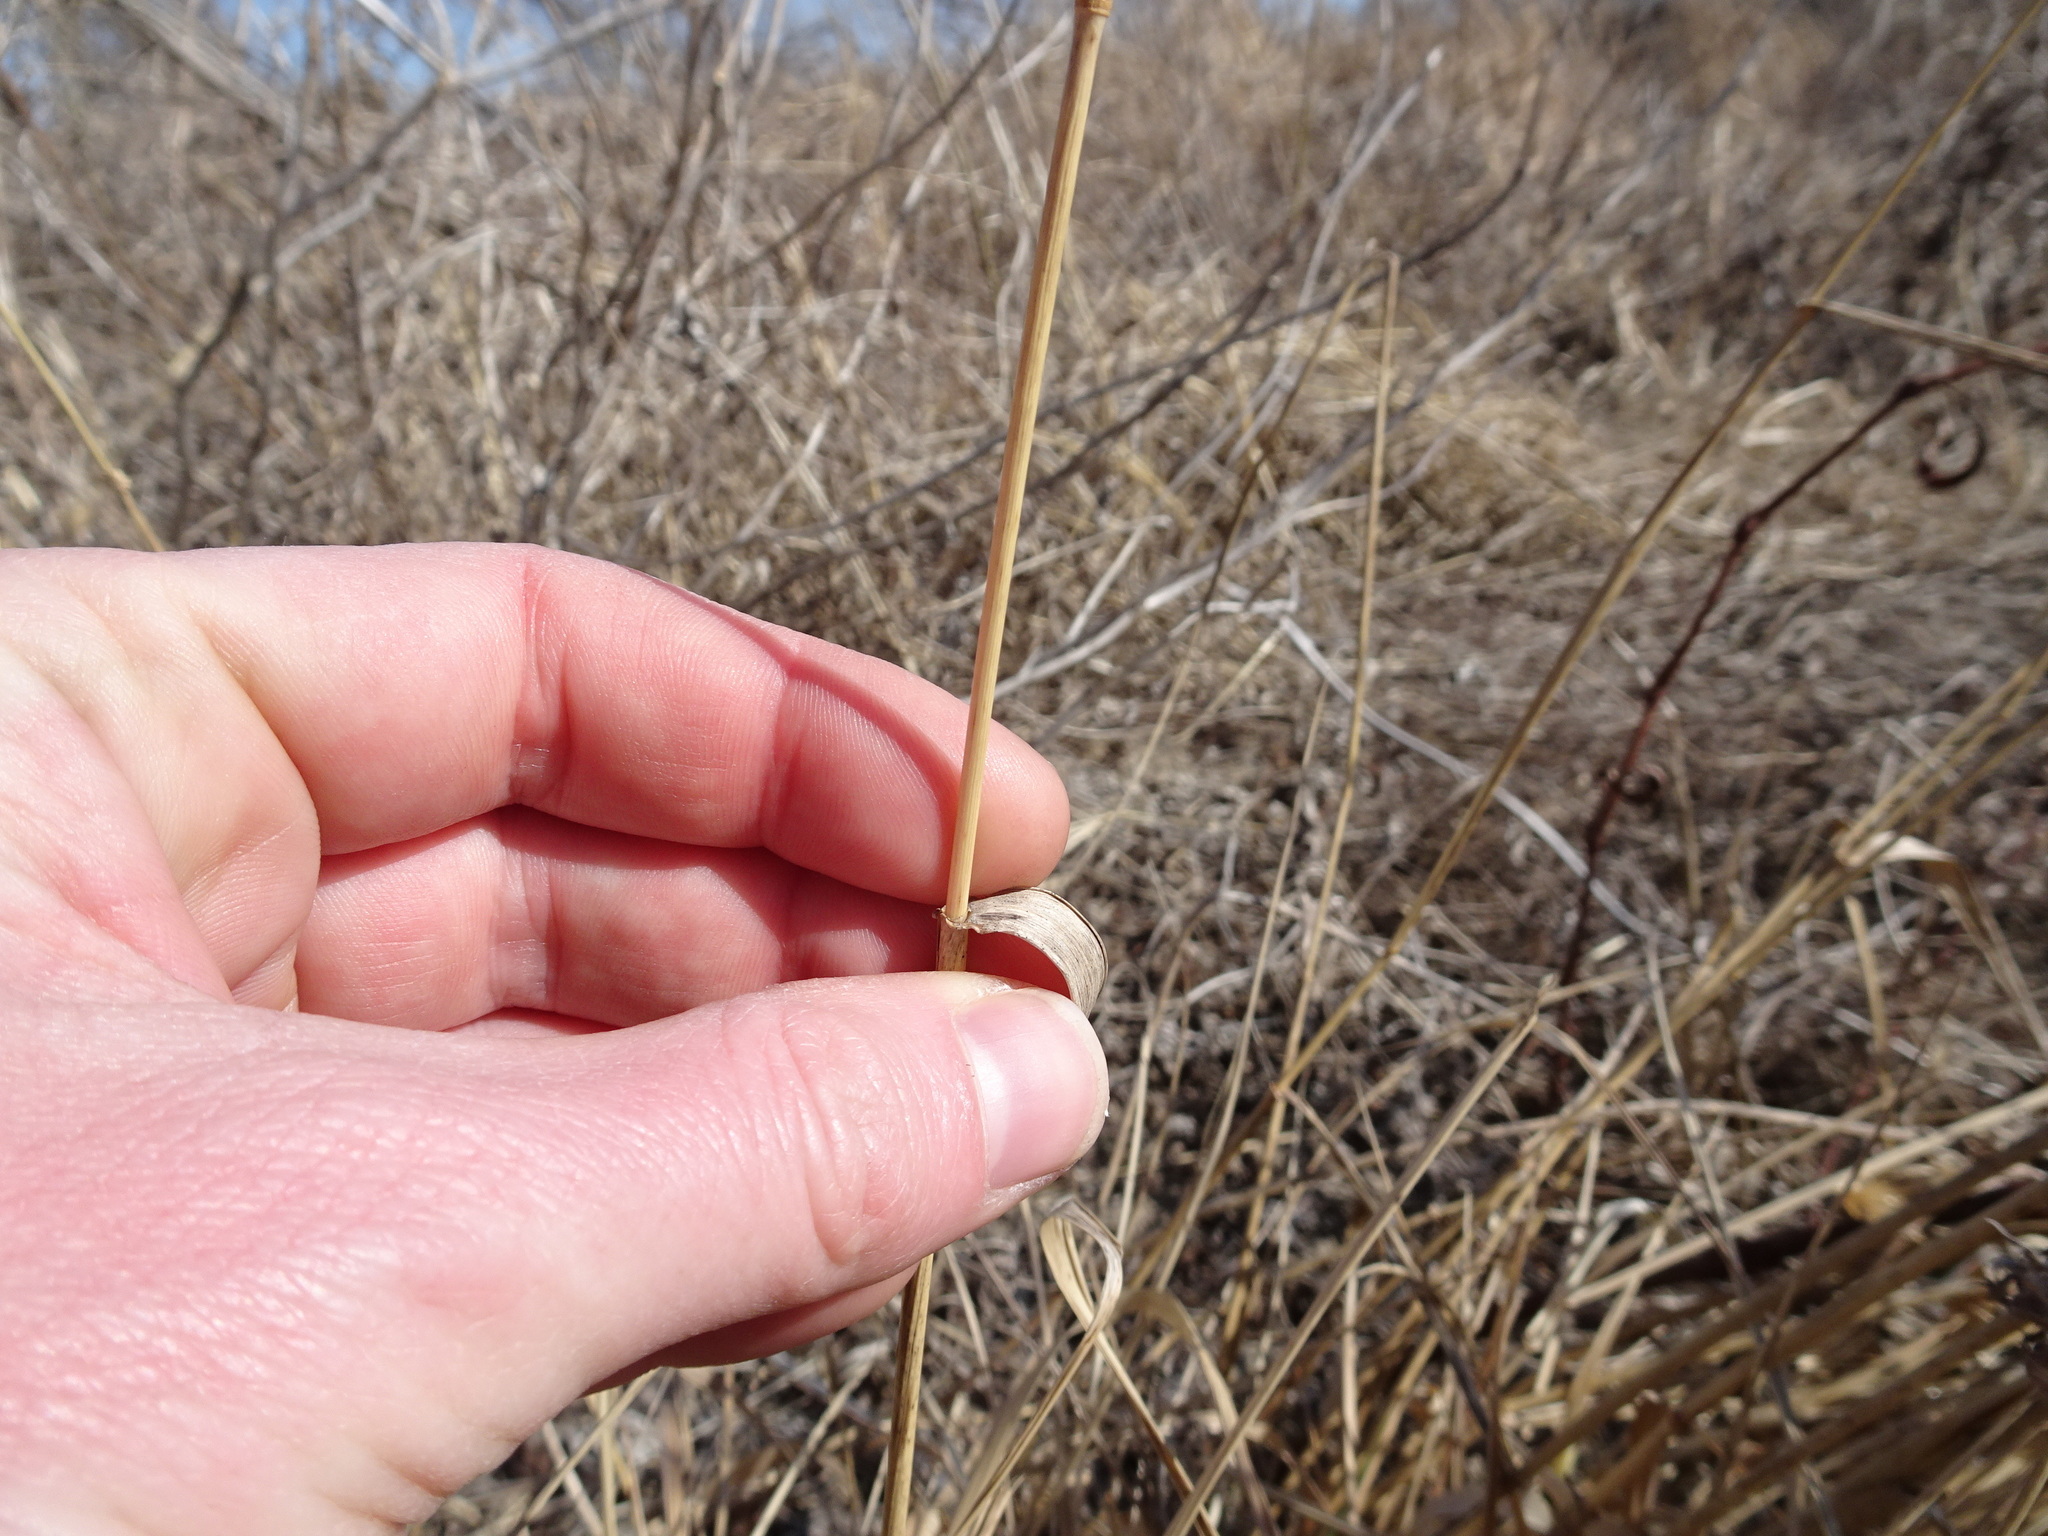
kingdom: Plantae
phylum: Tracheophyta
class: Liliopsida
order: Poales
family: Poaceae
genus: Elymus
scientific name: Elymus canadensis
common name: Canada wild rye
